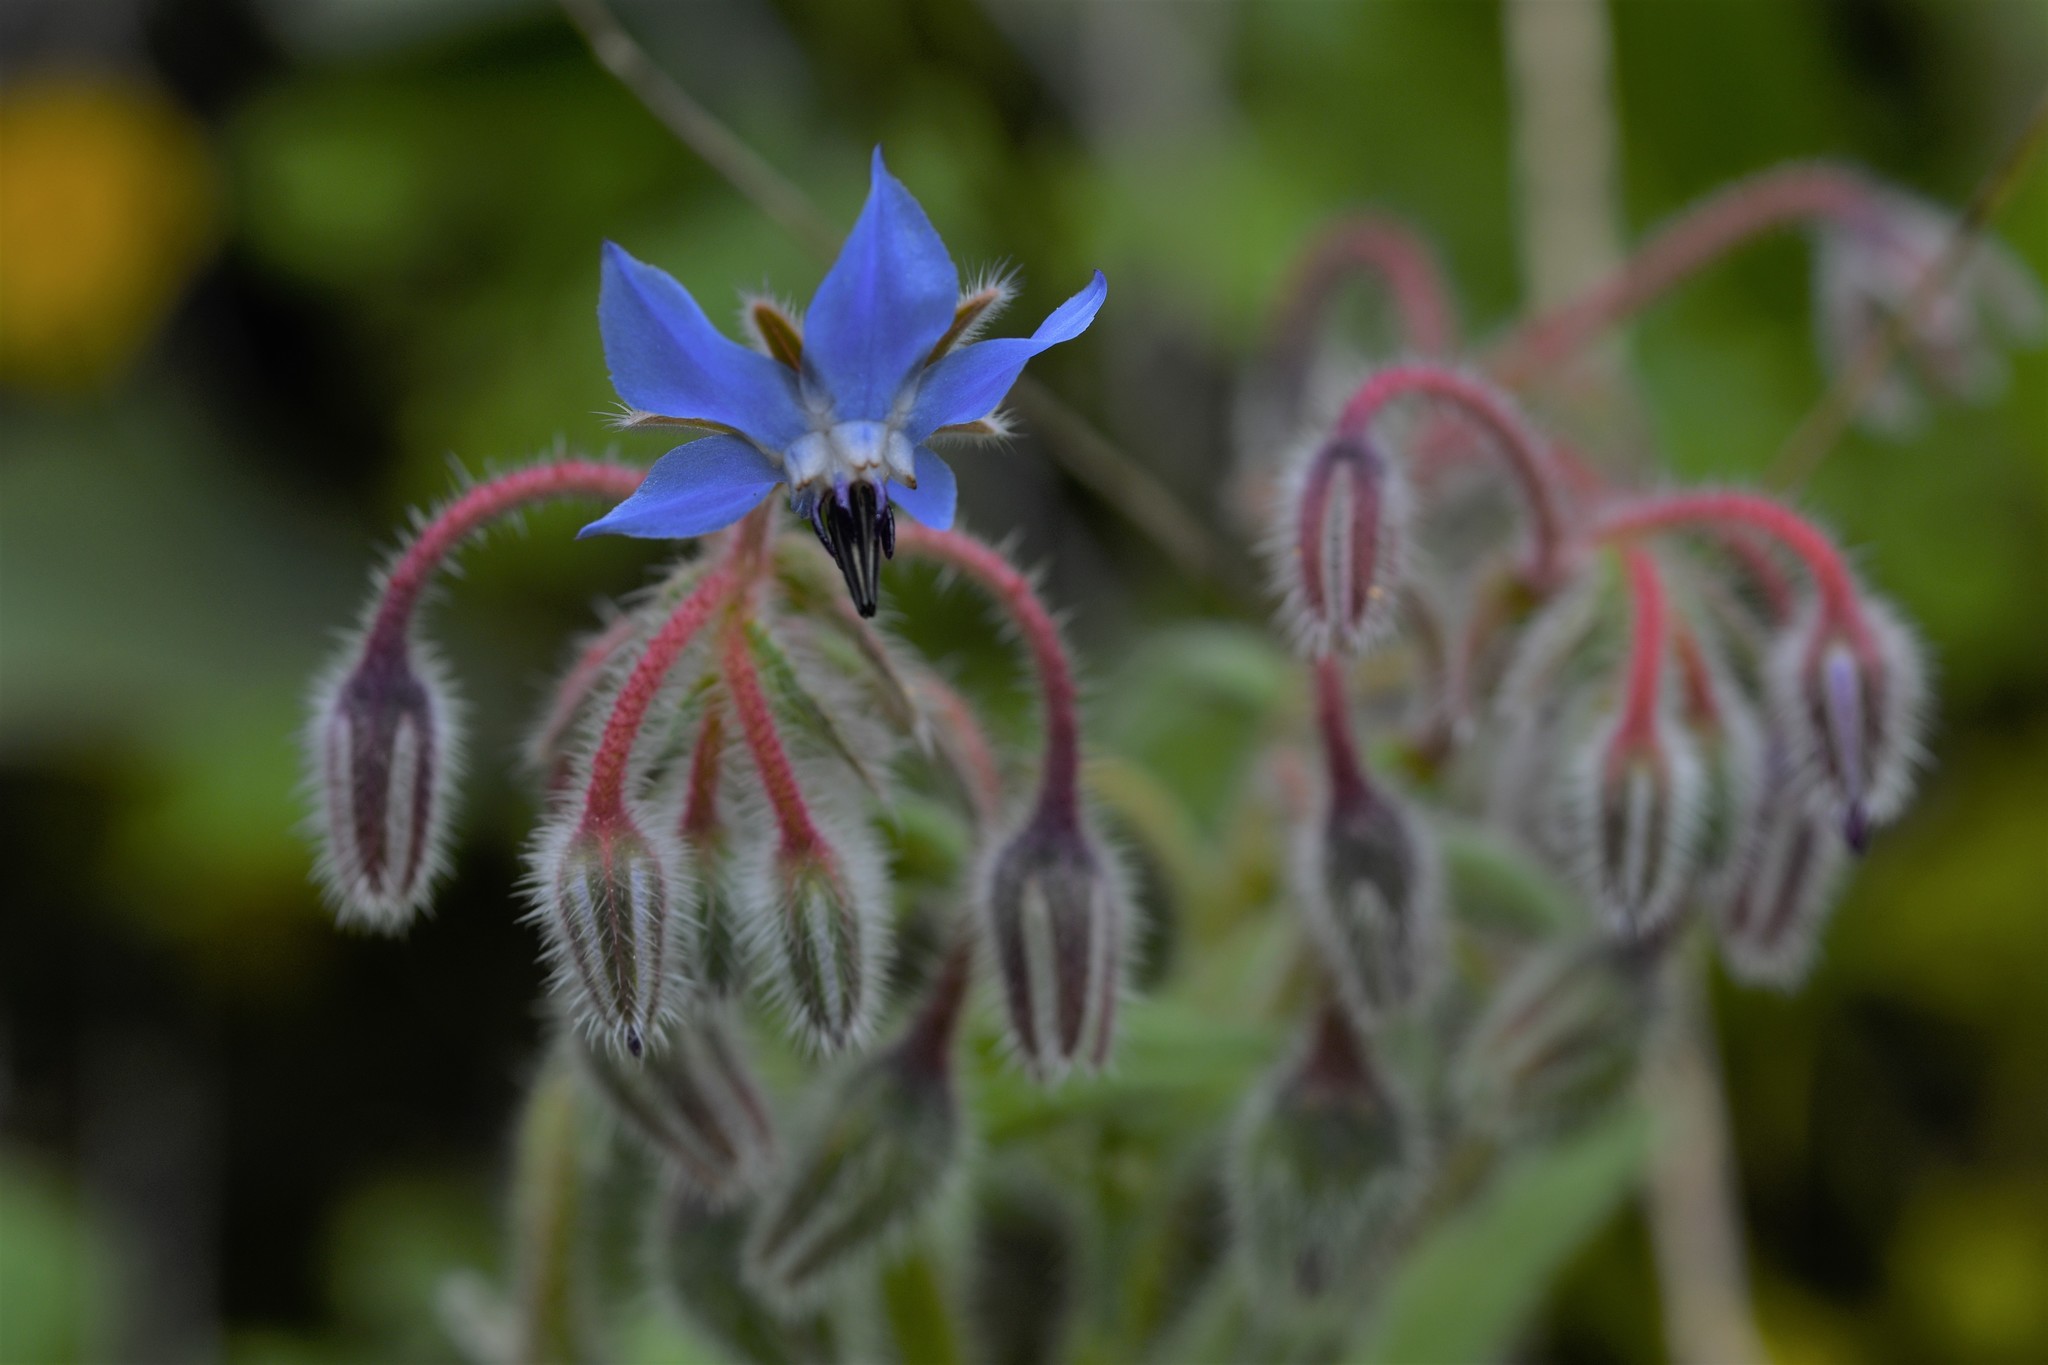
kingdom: Plantae
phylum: Tracheophyta
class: Magnoliopsida
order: Boraginales
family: Boraginaceae
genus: Borago
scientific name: Borago officinalis
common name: Borage
